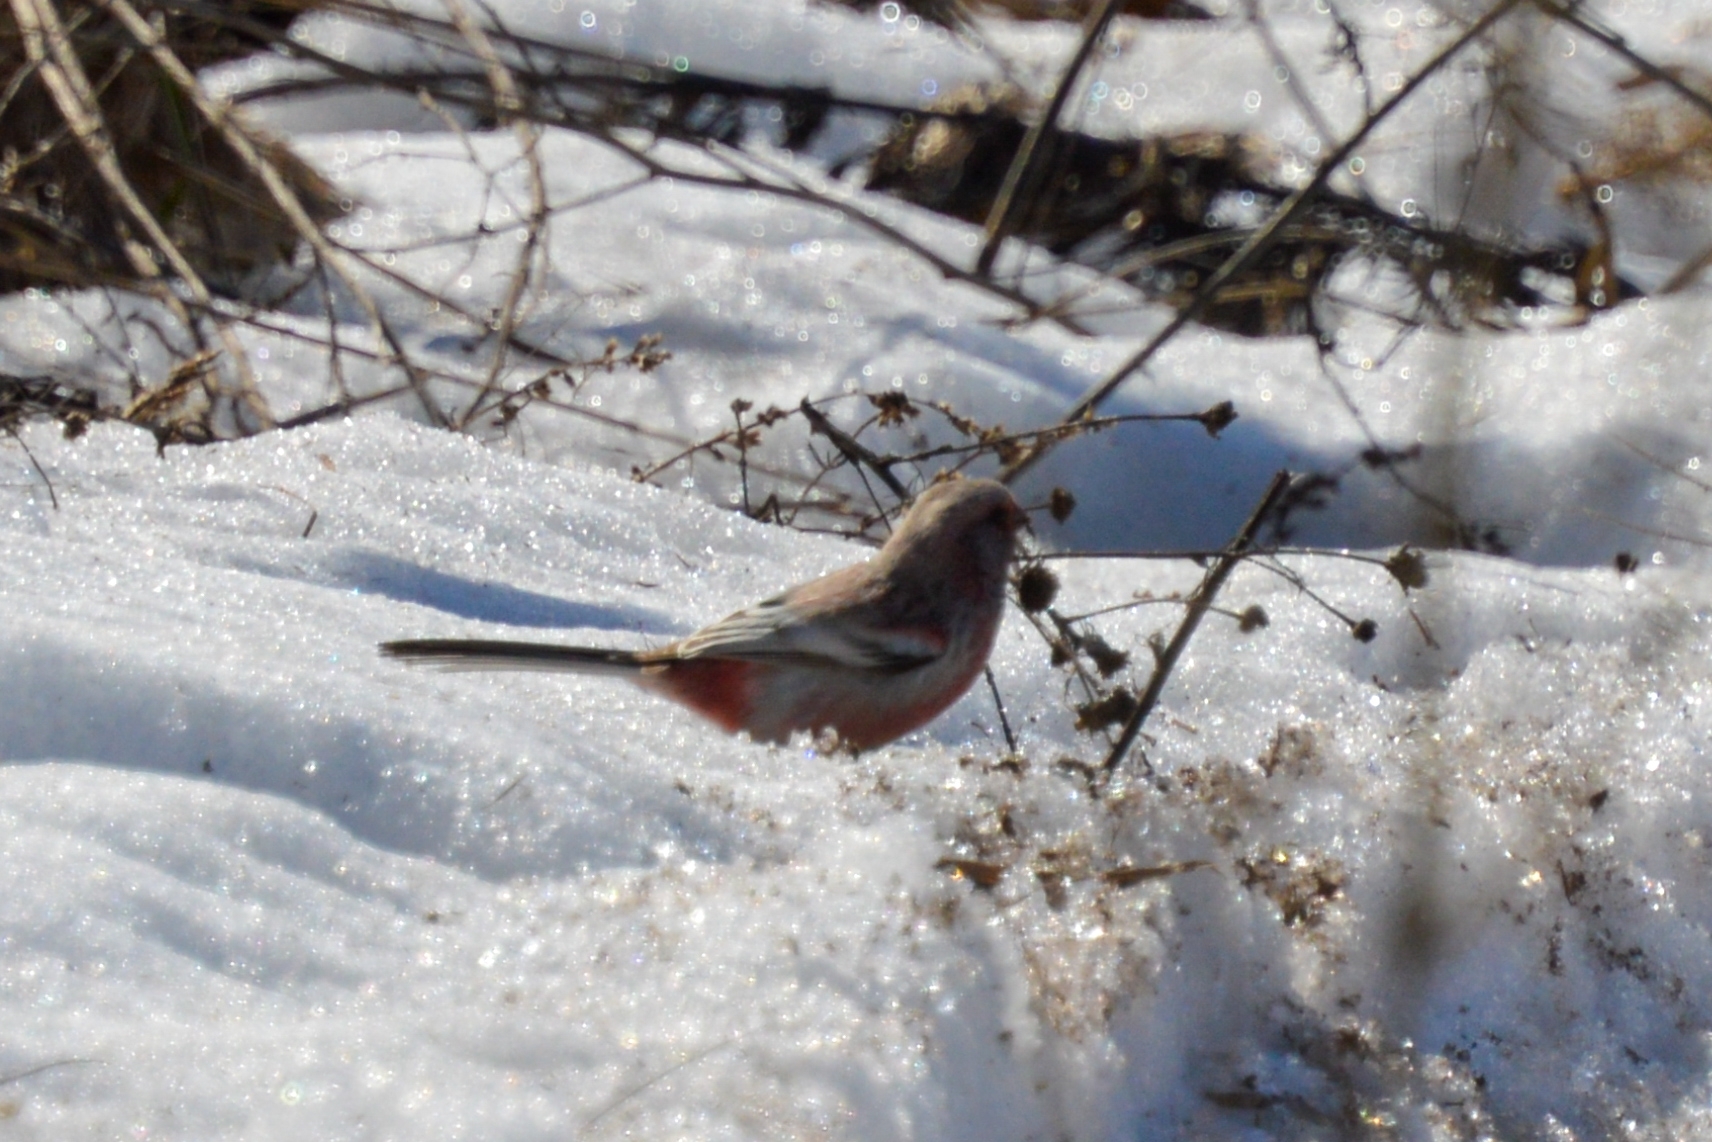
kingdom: Animalia
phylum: Chordata
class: Aves
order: Passeriformes
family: Fringillidae
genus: Carpodacus
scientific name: Carpodacus sibiricus
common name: Long-tailed rosefinch
